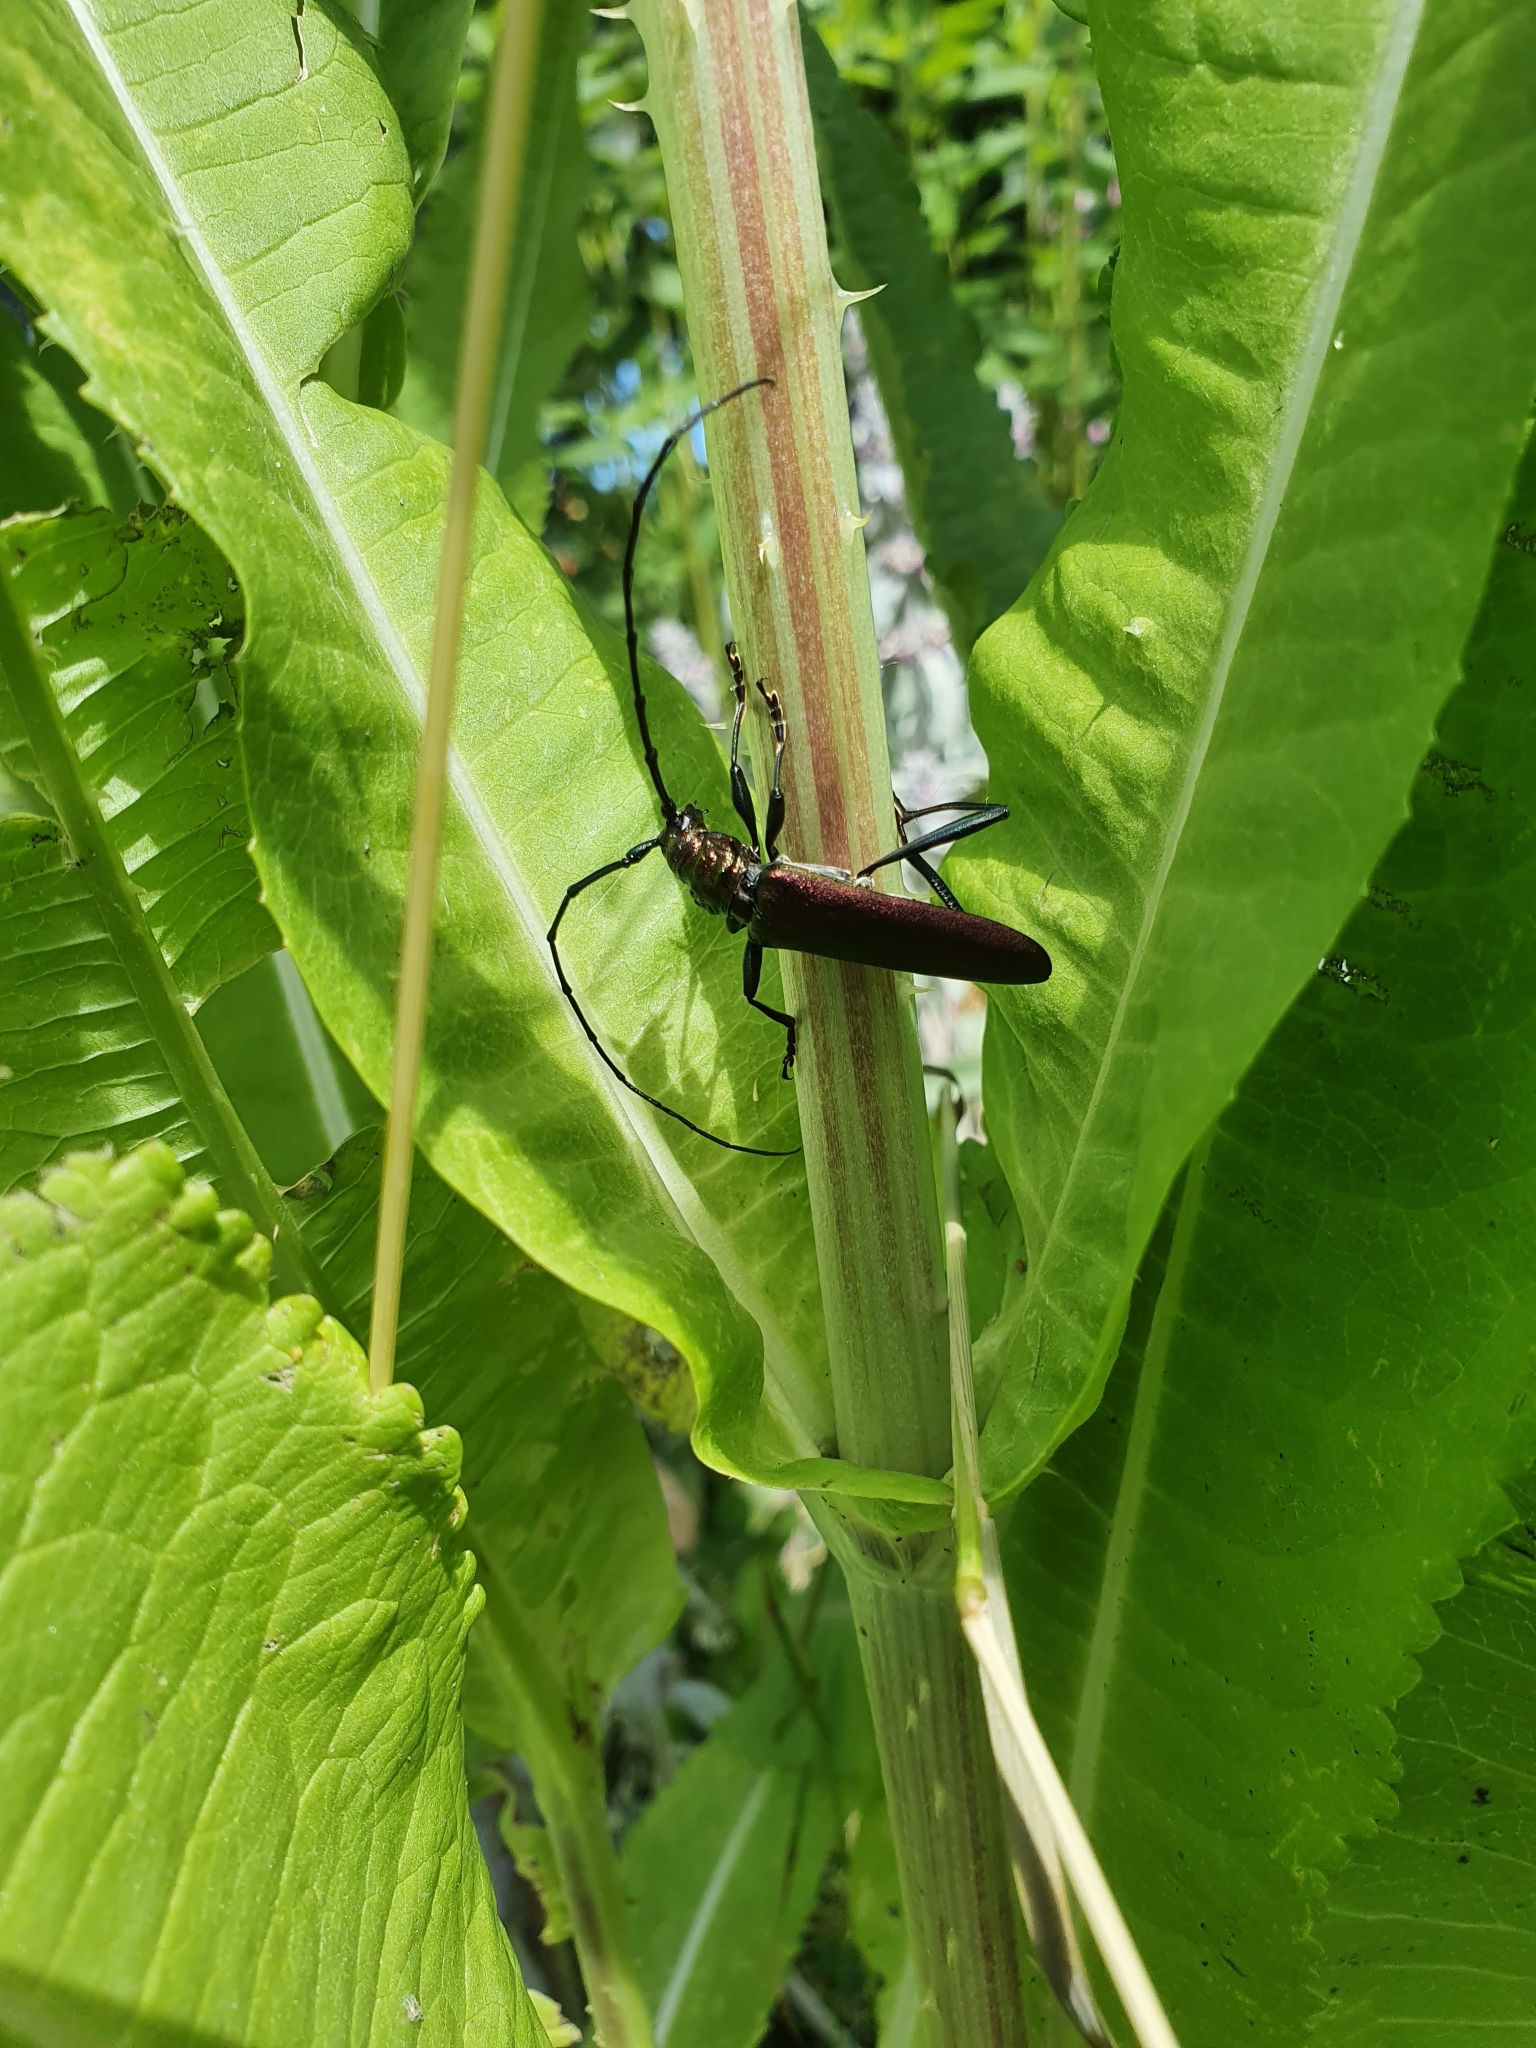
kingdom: Animalia
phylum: Arthropoda
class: Insecta
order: Coleoptera
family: Cerambycidae
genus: Aromia
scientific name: Aromia moschata
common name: Musk beetle
